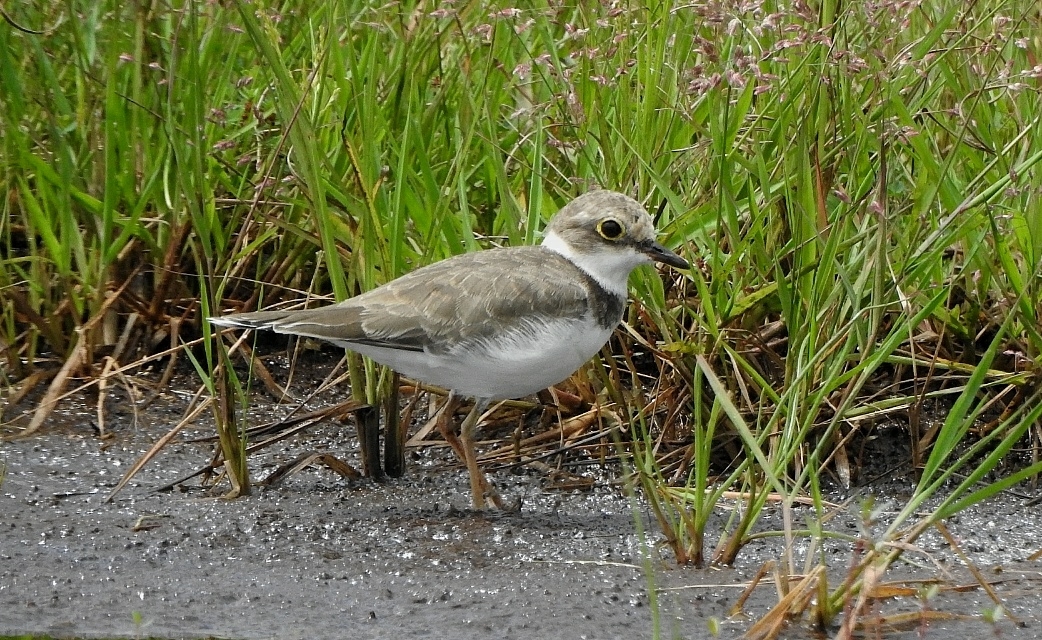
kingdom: Animalia
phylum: Chordata
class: Aves
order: Charadriiformes
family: Charadriidae
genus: Charadrius
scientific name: Charadrius dubius
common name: Little ringed plover
